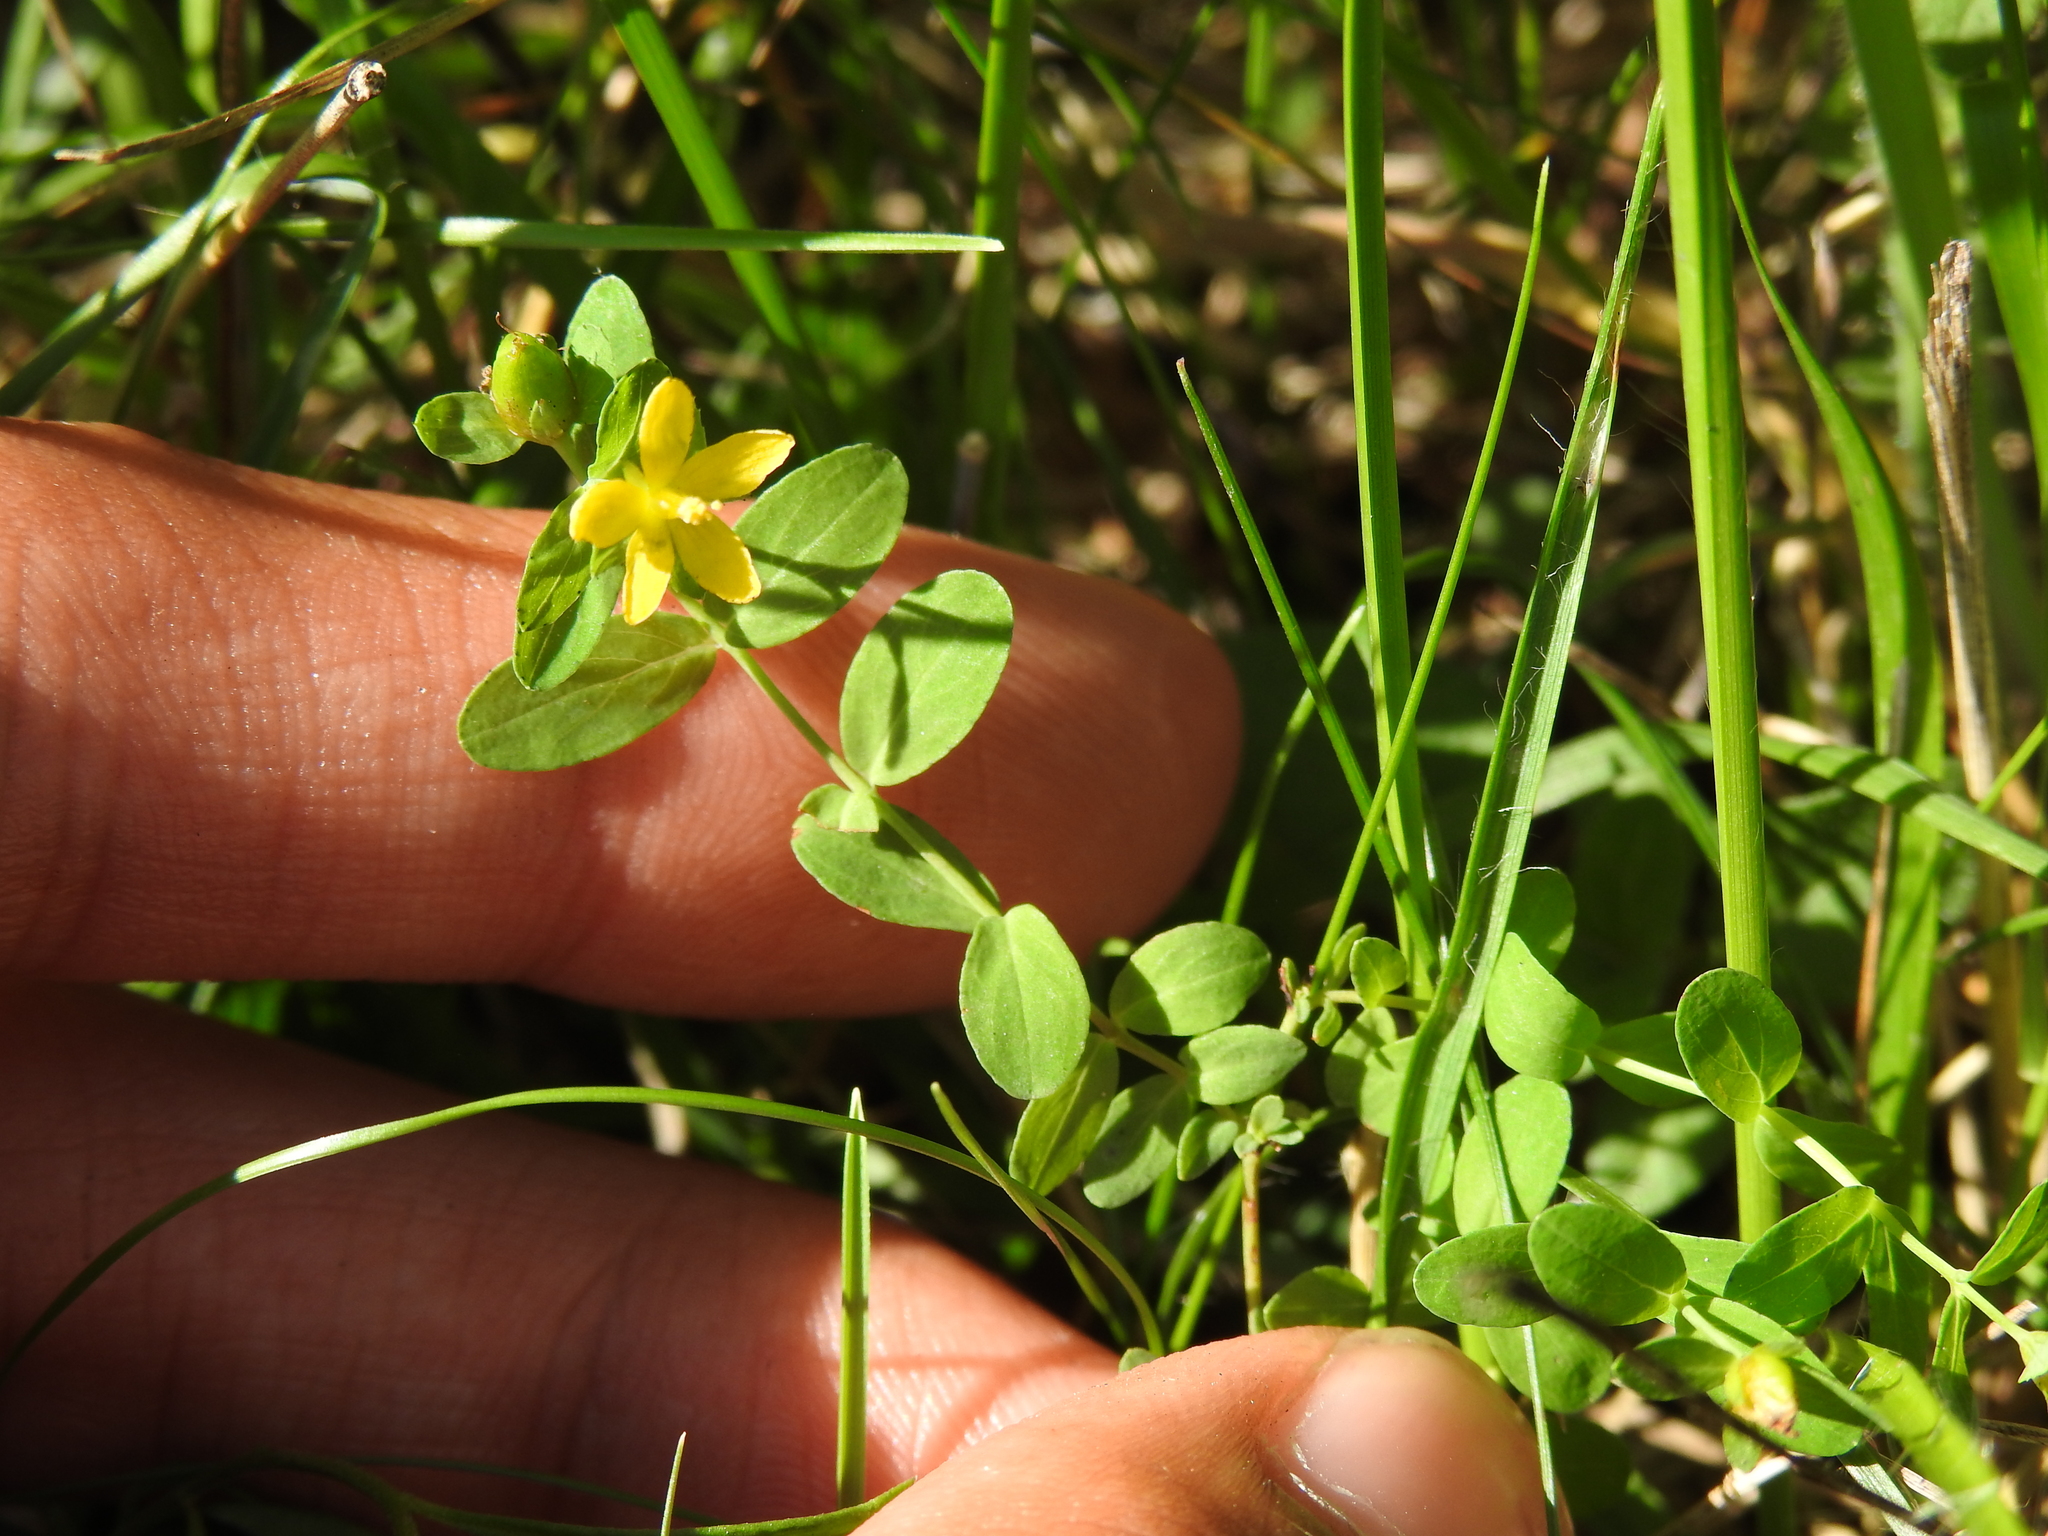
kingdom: Plantae
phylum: Tracheophyta
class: Magnoliopsida
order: Malpighiales
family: Hypericaceae
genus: Hypericum
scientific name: Hypericum humifusum
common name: Trailing st. john's-wort
